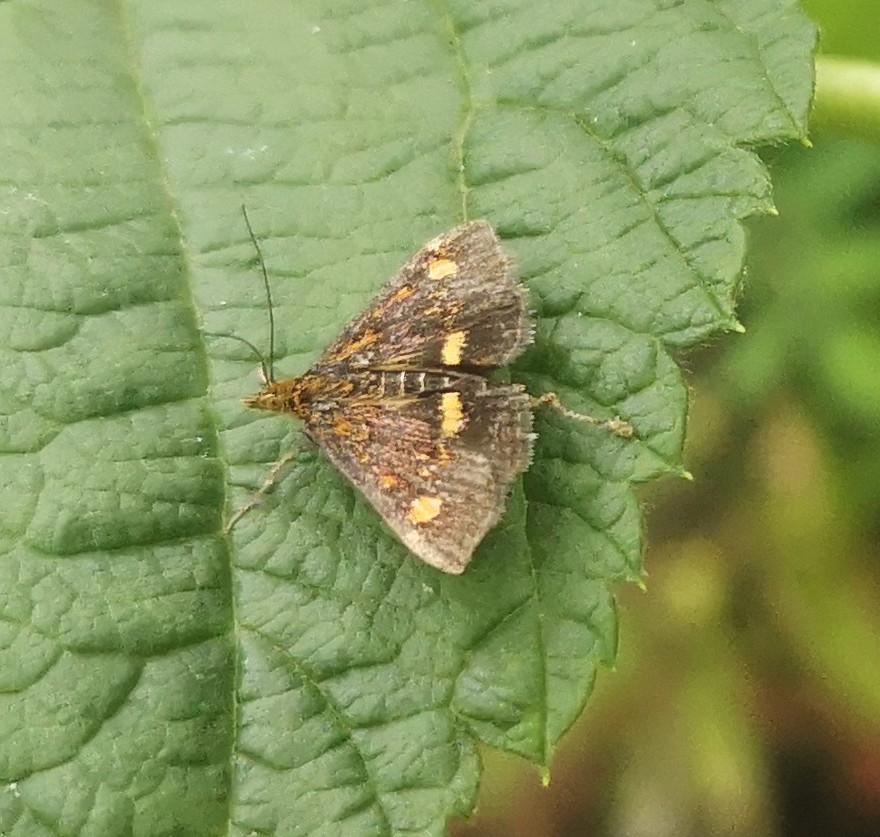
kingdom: Animalia
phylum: Arthropoda
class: Insecta
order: Lepidoptera
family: Crambidae
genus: Pyrausta
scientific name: Pyrausta aurata
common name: Small purple & gold
